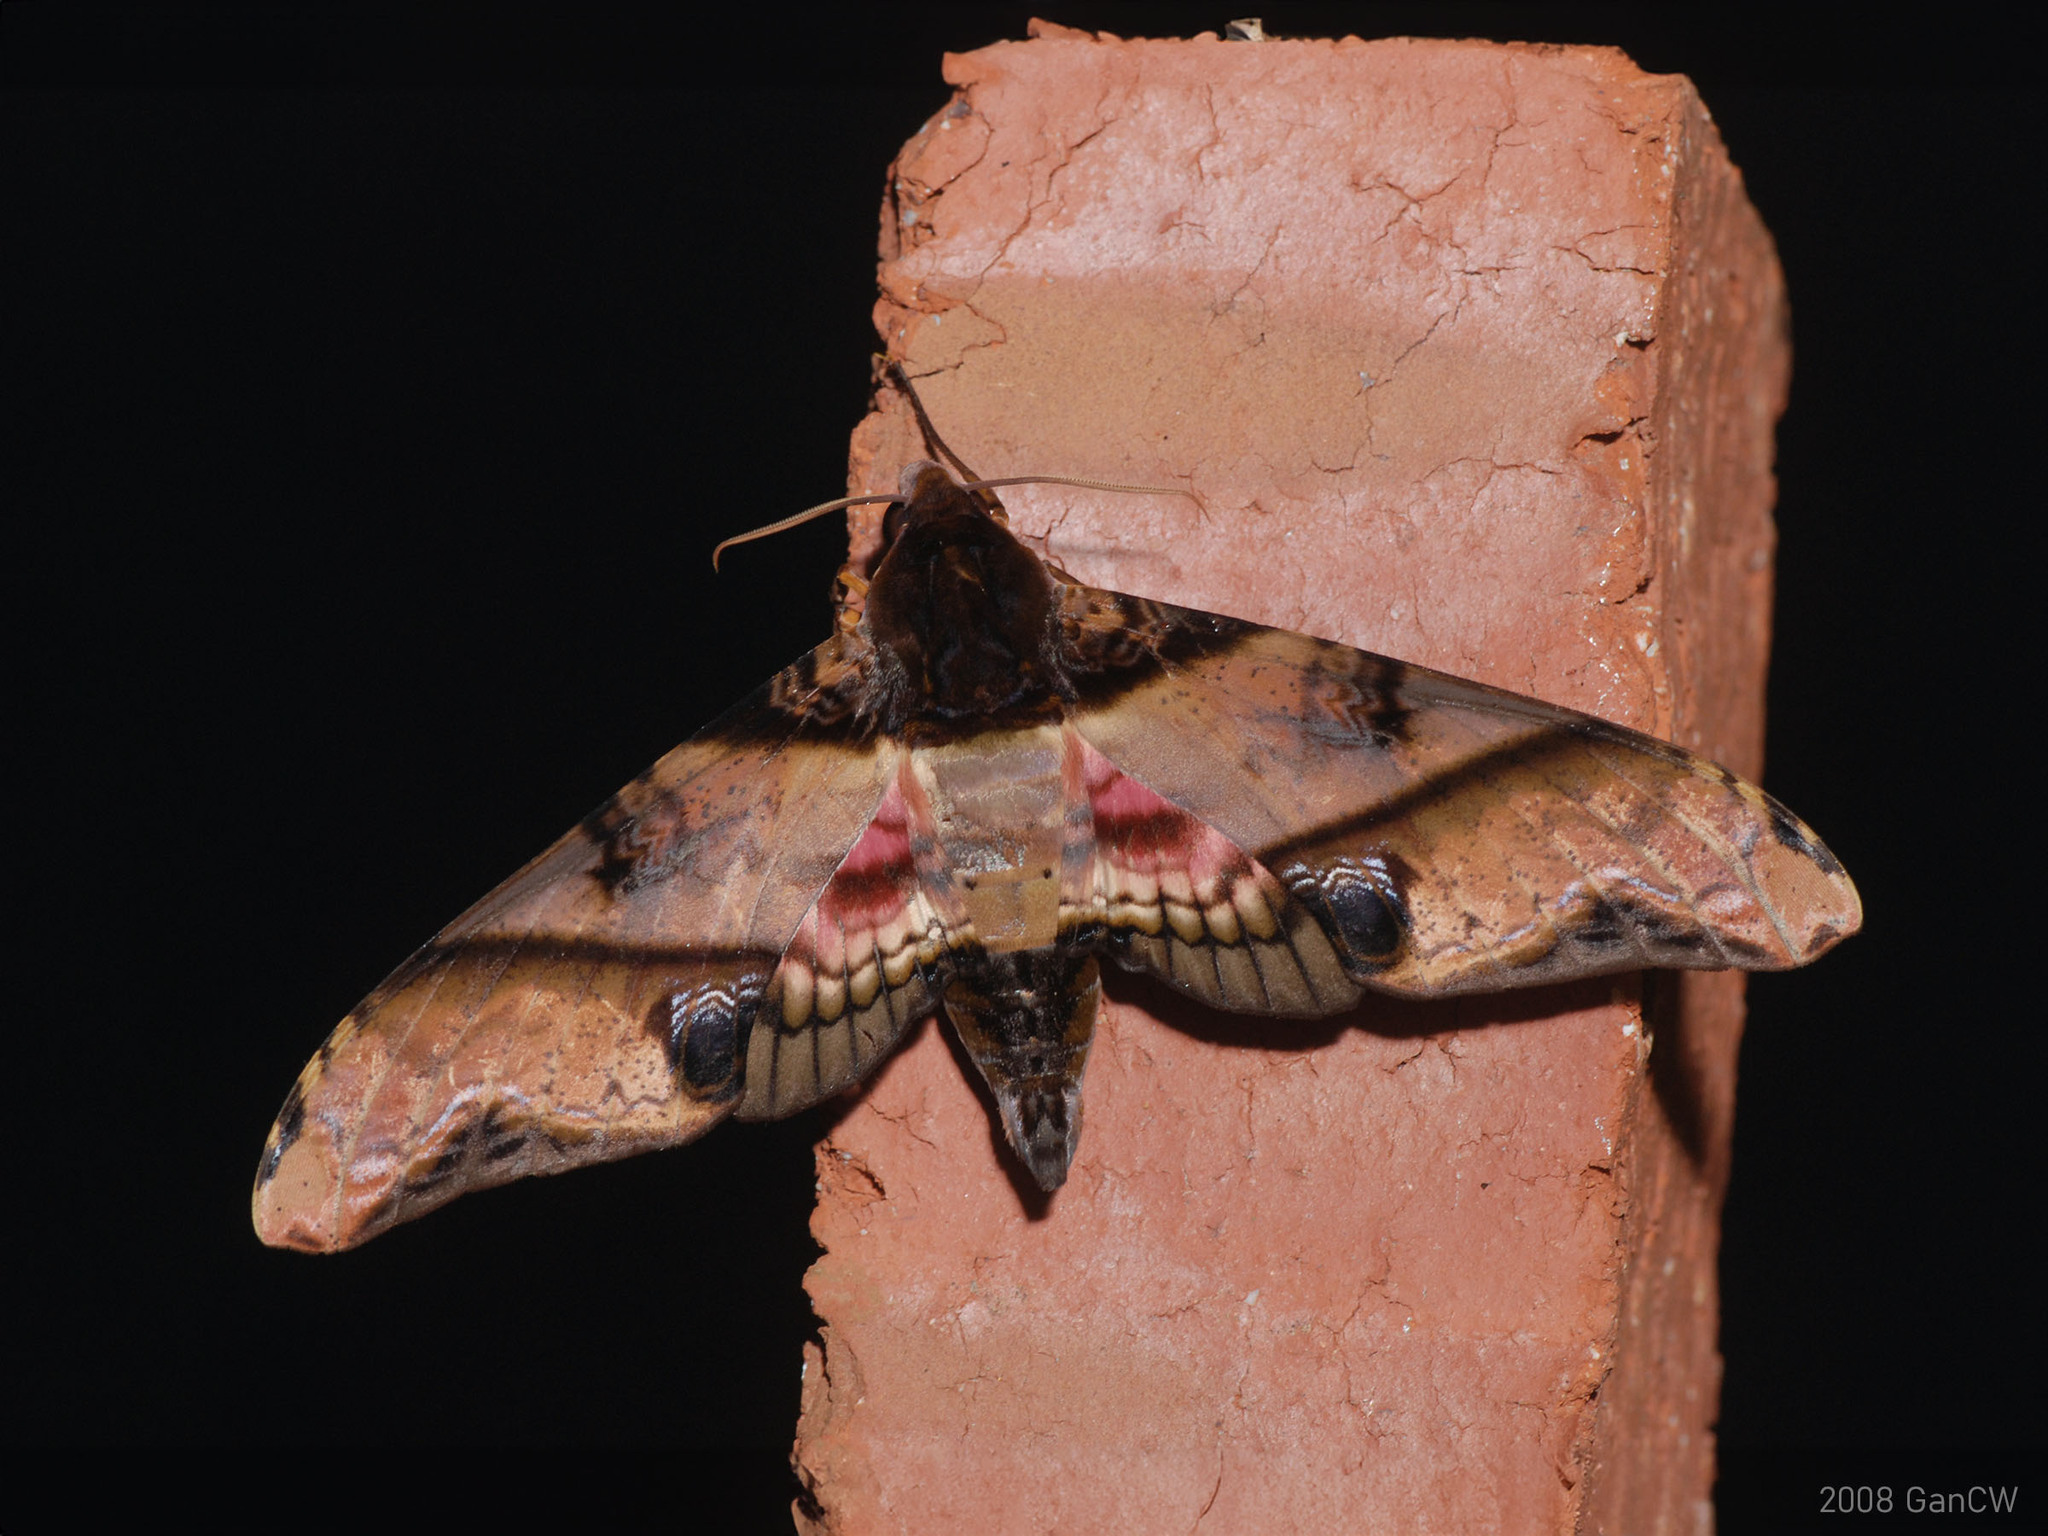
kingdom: Animalia
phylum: Arthropoda
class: Insecta
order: Lepidoptera
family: Sphingidae
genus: Amplypterus
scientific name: Amplypterus panopus
